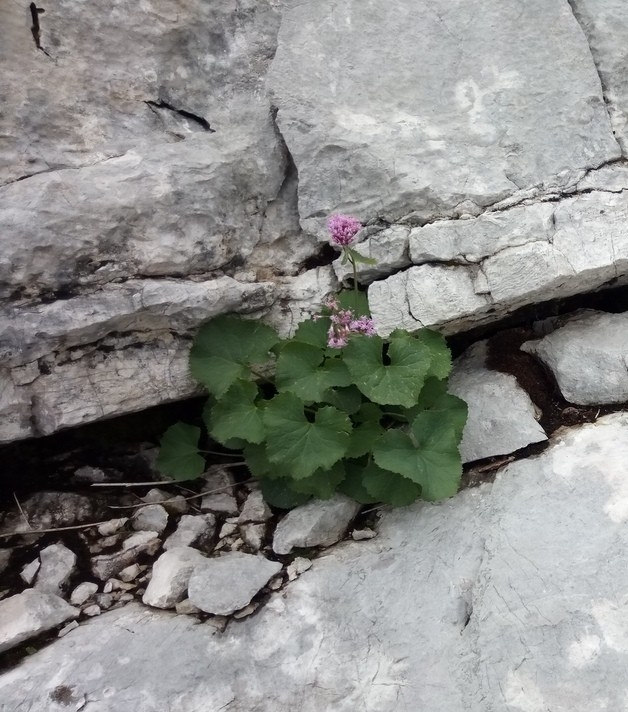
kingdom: Plantae
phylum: Tracheophyta
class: Magnoliopsida
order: Asterales
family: Asteraceae
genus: Adenostyles
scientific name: Adenostyles alpina
